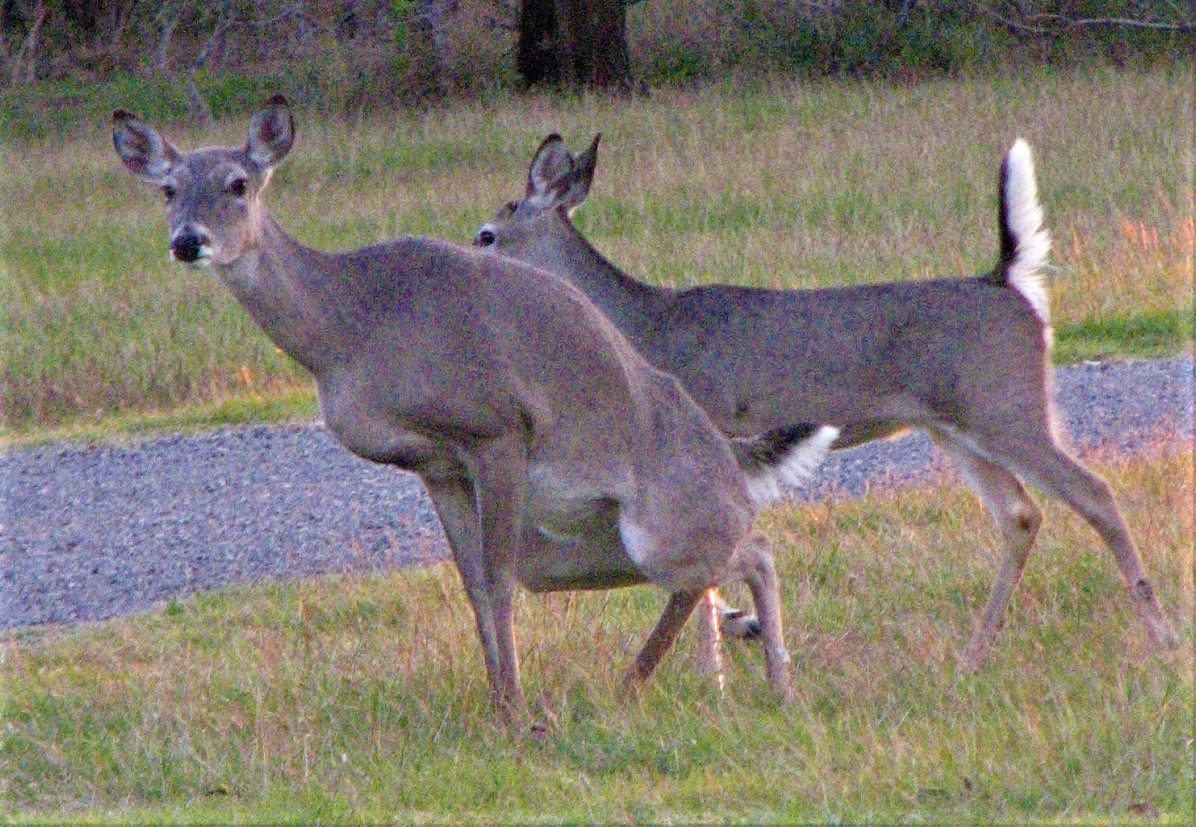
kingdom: Animalia
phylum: Chordata
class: Mammalia
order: Artiodactyla
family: Cervidae
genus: Odocoileus
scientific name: Odocoileus virginianus
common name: White-tailed deer
